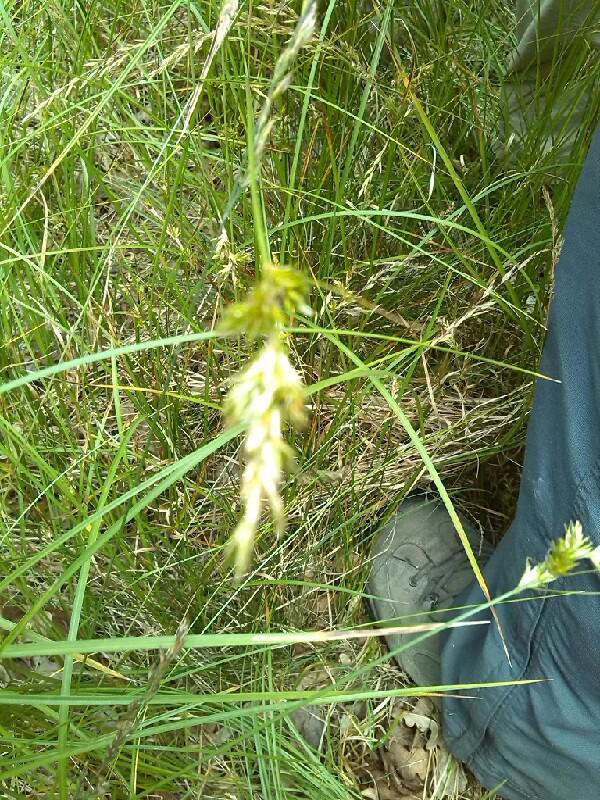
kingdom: Plantae
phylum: Tracheophyta
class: Liliopsida
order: Poales
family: Cyperaceae
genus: Carex
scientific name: Carex pseudobrizoides
